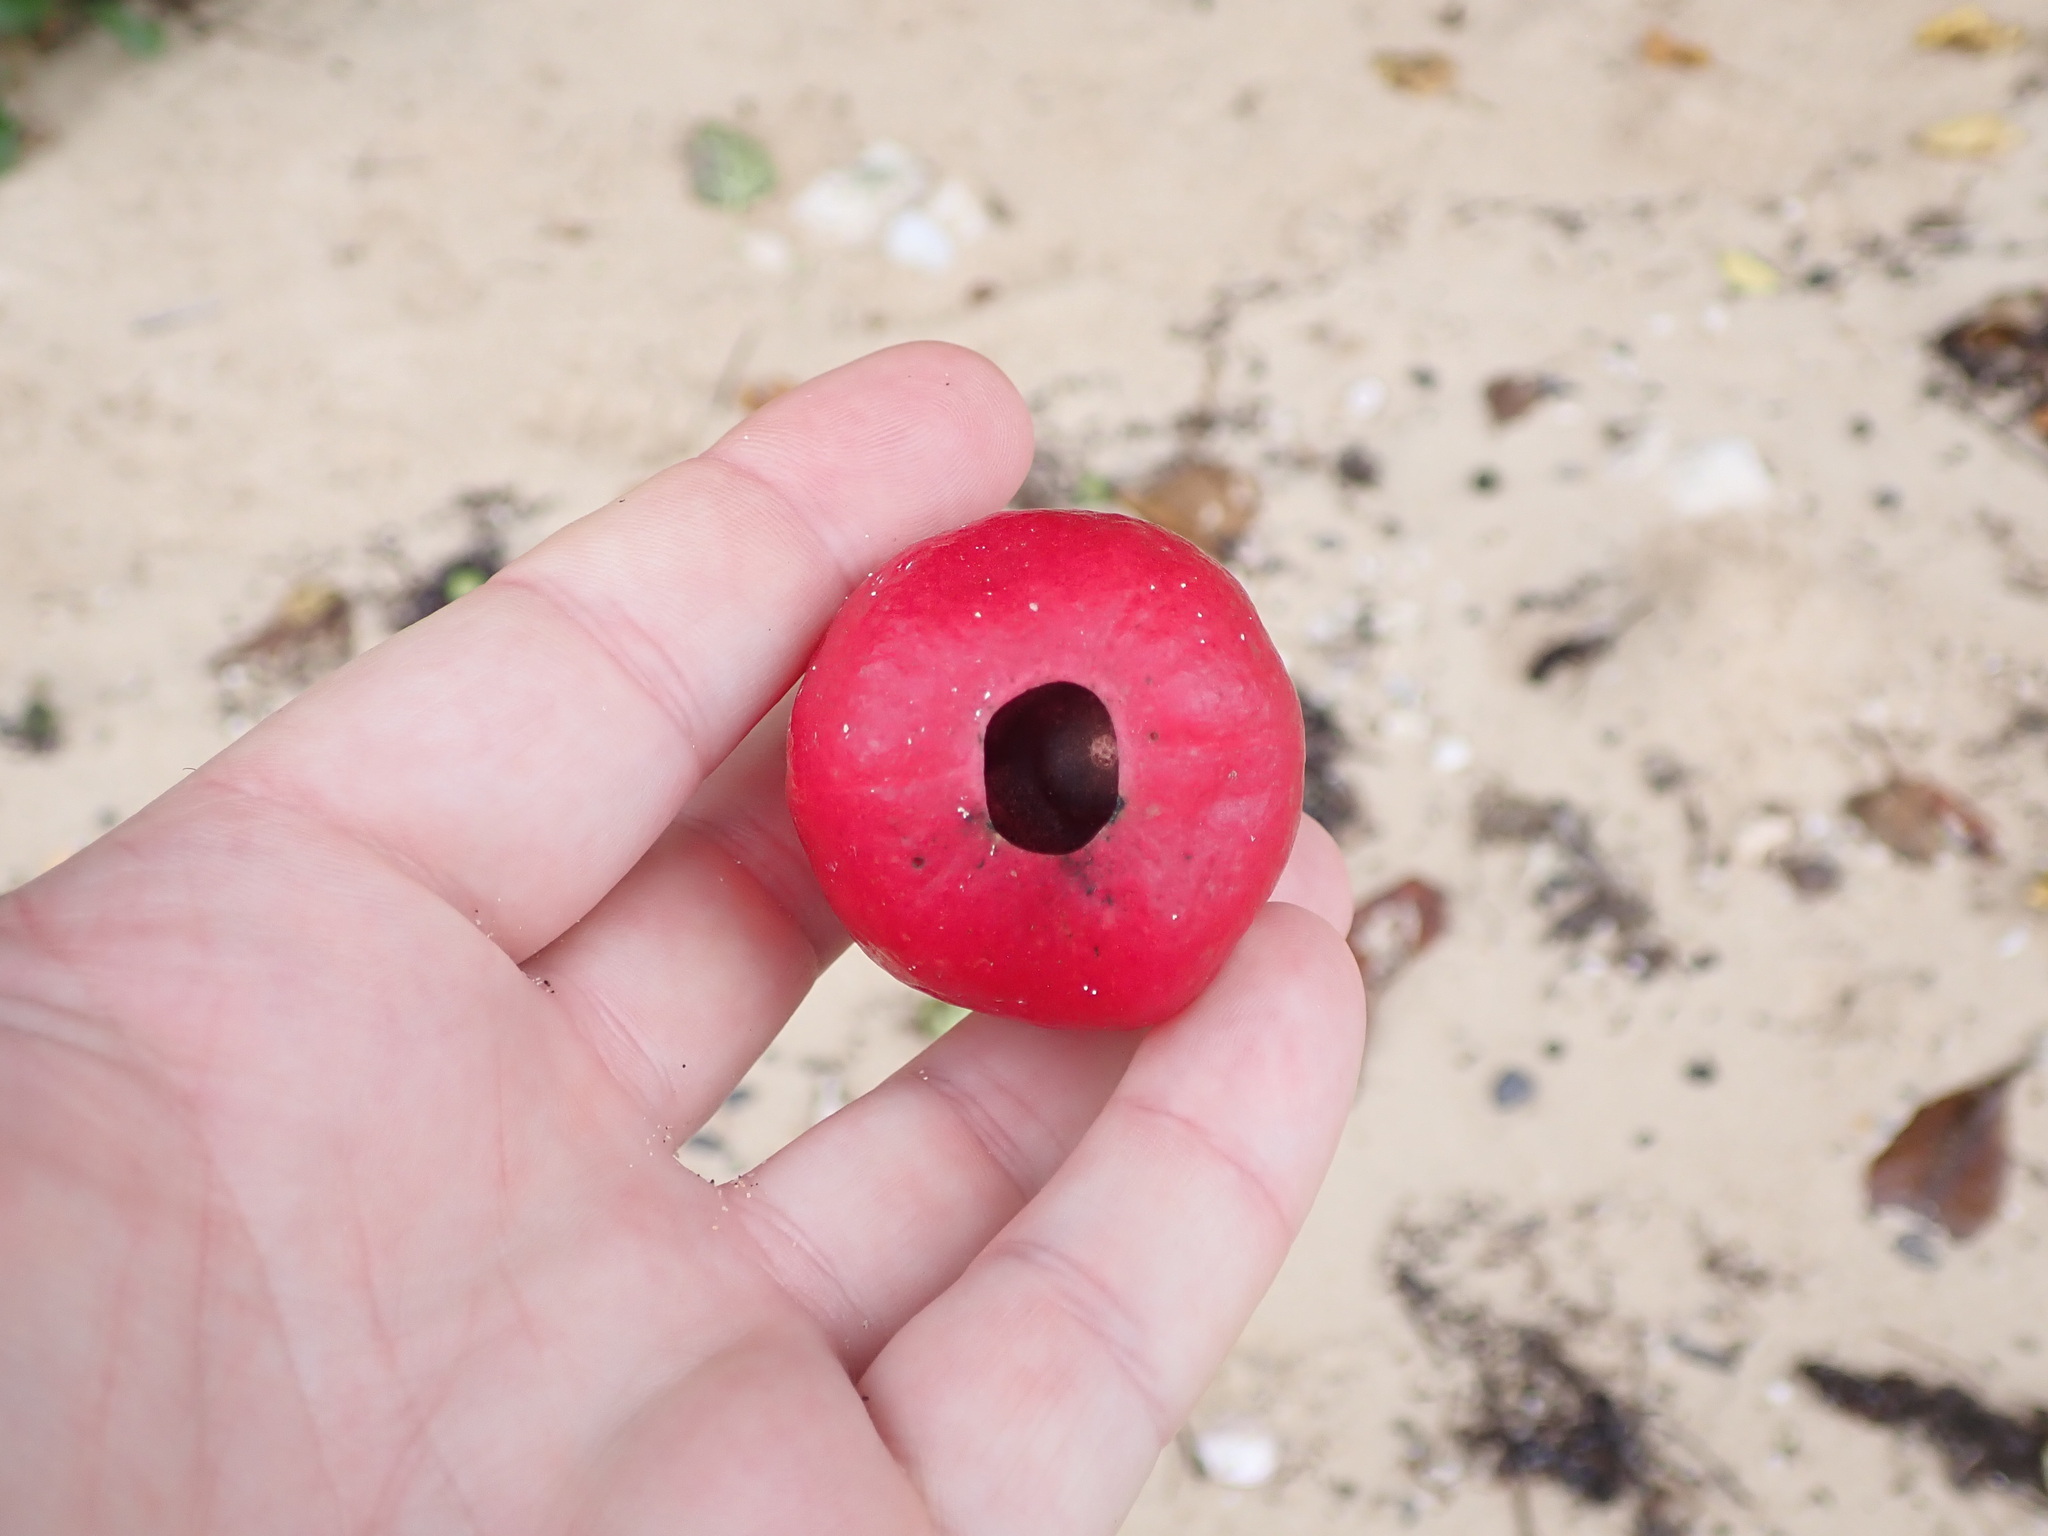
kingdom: Plantae
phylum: Tracheophyta
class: Magnoliopsida
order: Laurales
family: Hernandiaceae
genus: Hernandia
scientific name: Hernandia nymphaeifolia
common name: Sea hearse
